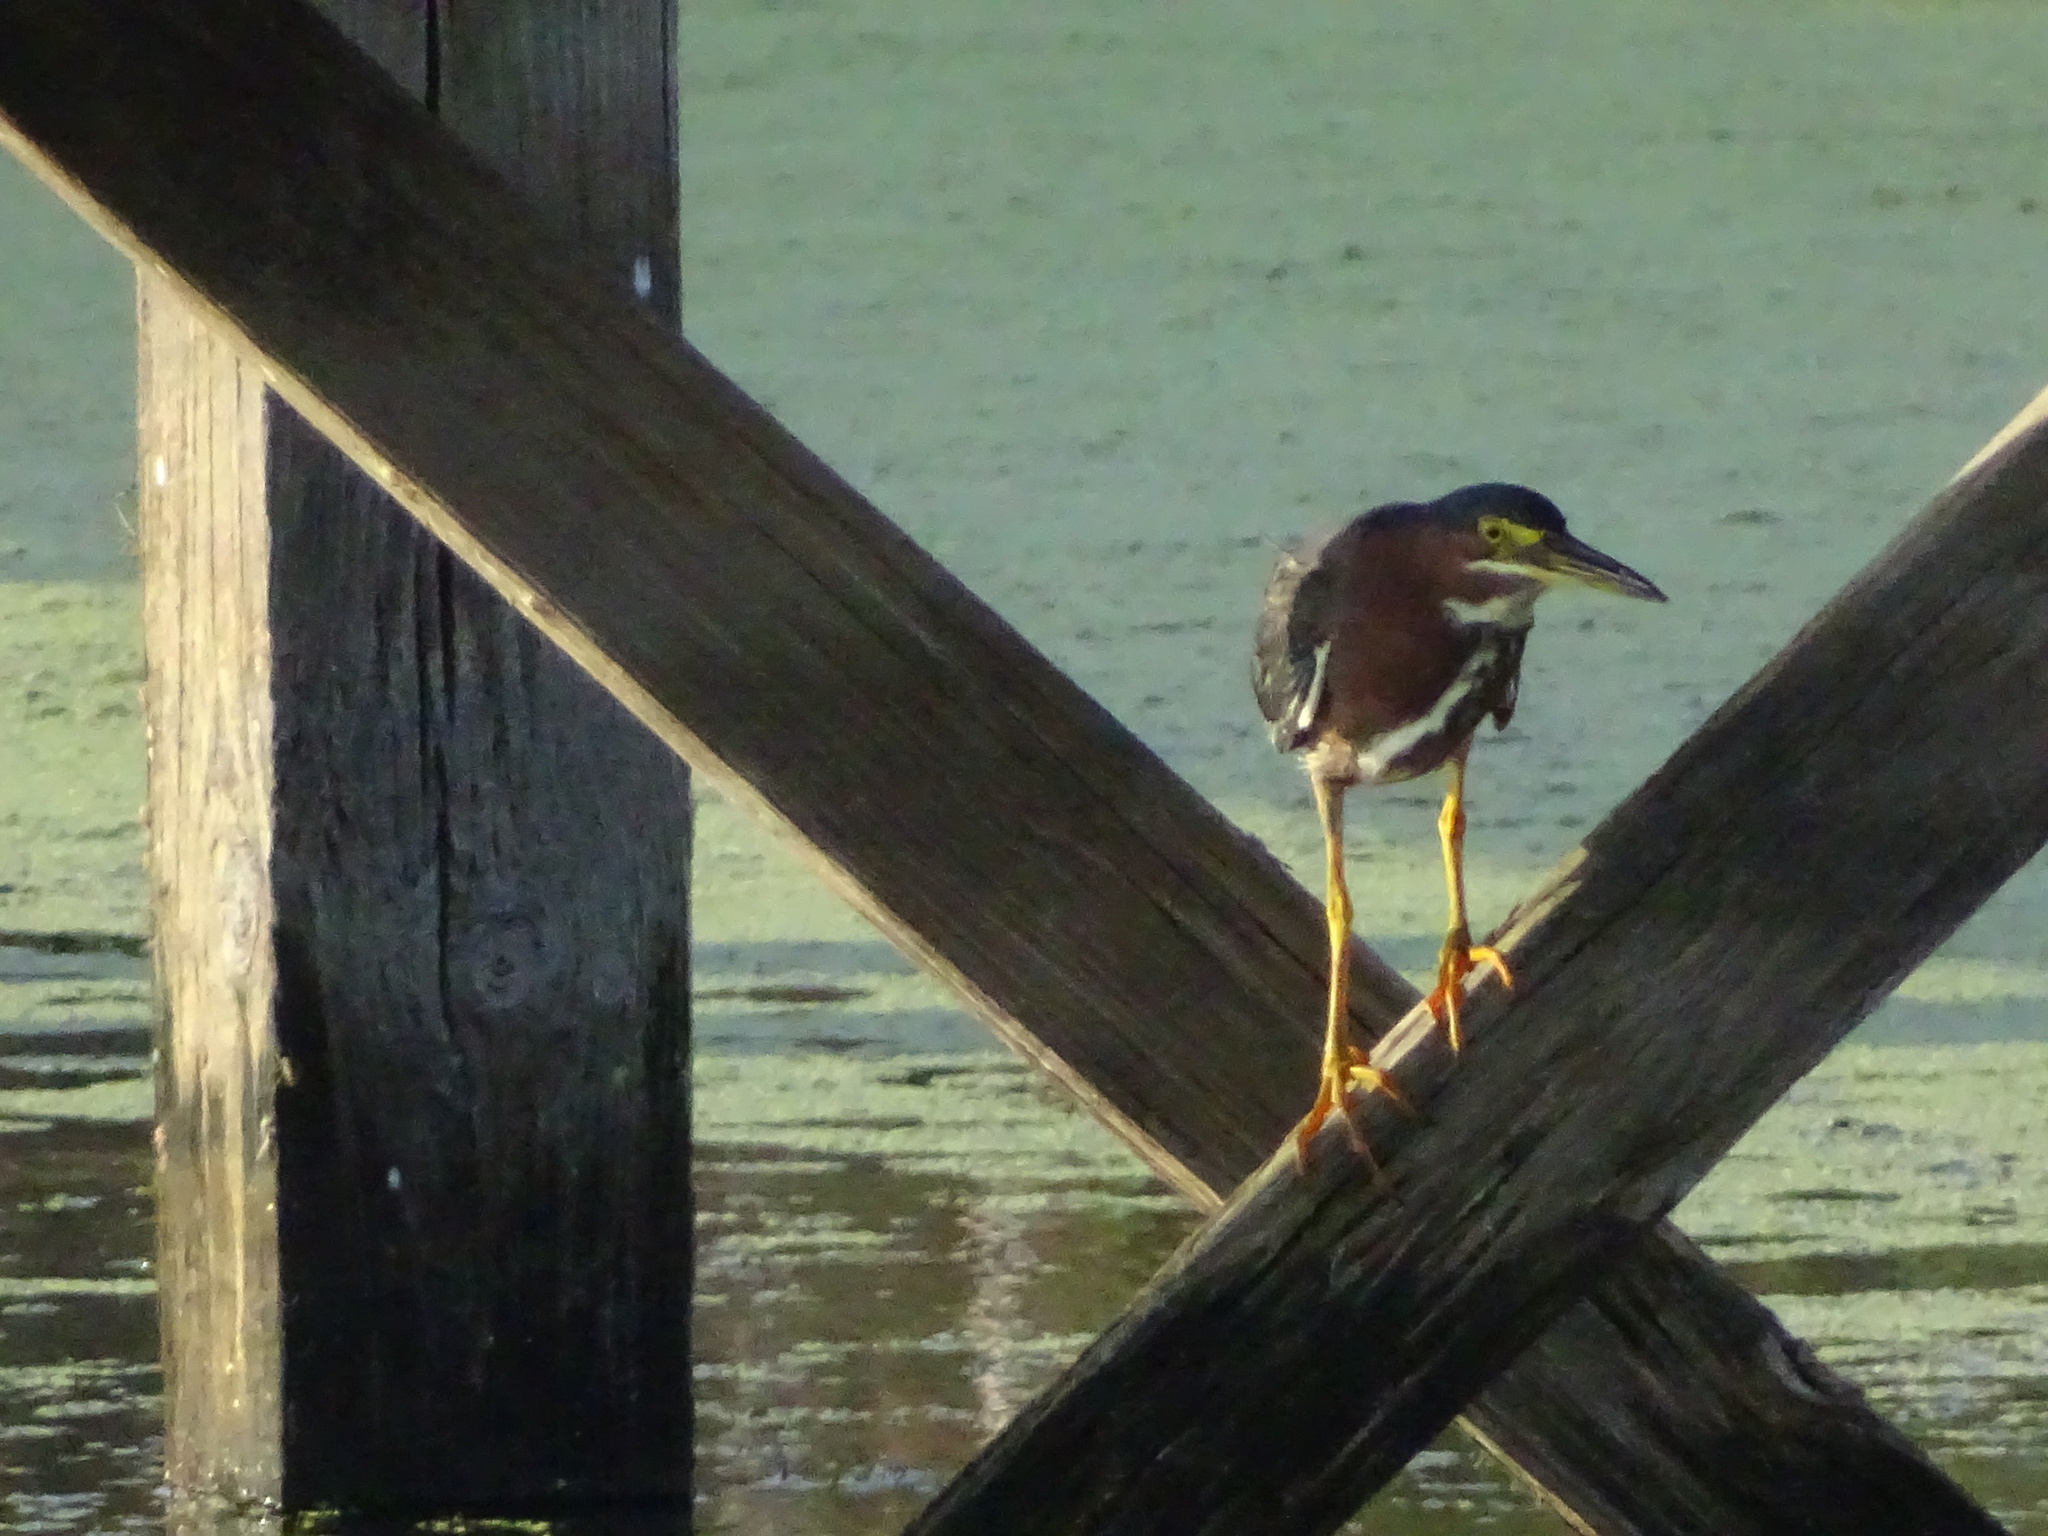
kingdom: Animalia
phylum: Chordata
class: Aves
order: Pelecaniformes
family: Ardeidae
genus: Butorides
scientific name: Butorides virescens
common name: Green heron
